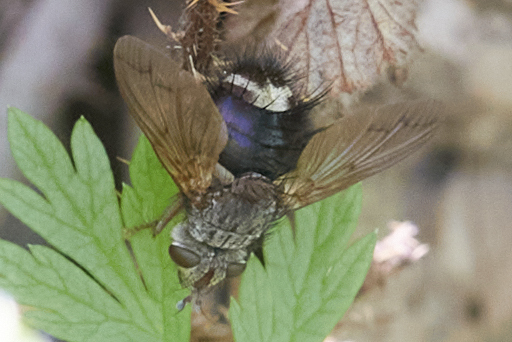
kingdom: Animalia
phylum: Arthropoda
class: Insecta
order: Diptera
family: Tachinidae
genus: Epalpus
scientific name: Epalpus signifer
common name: Early tachinid fly
